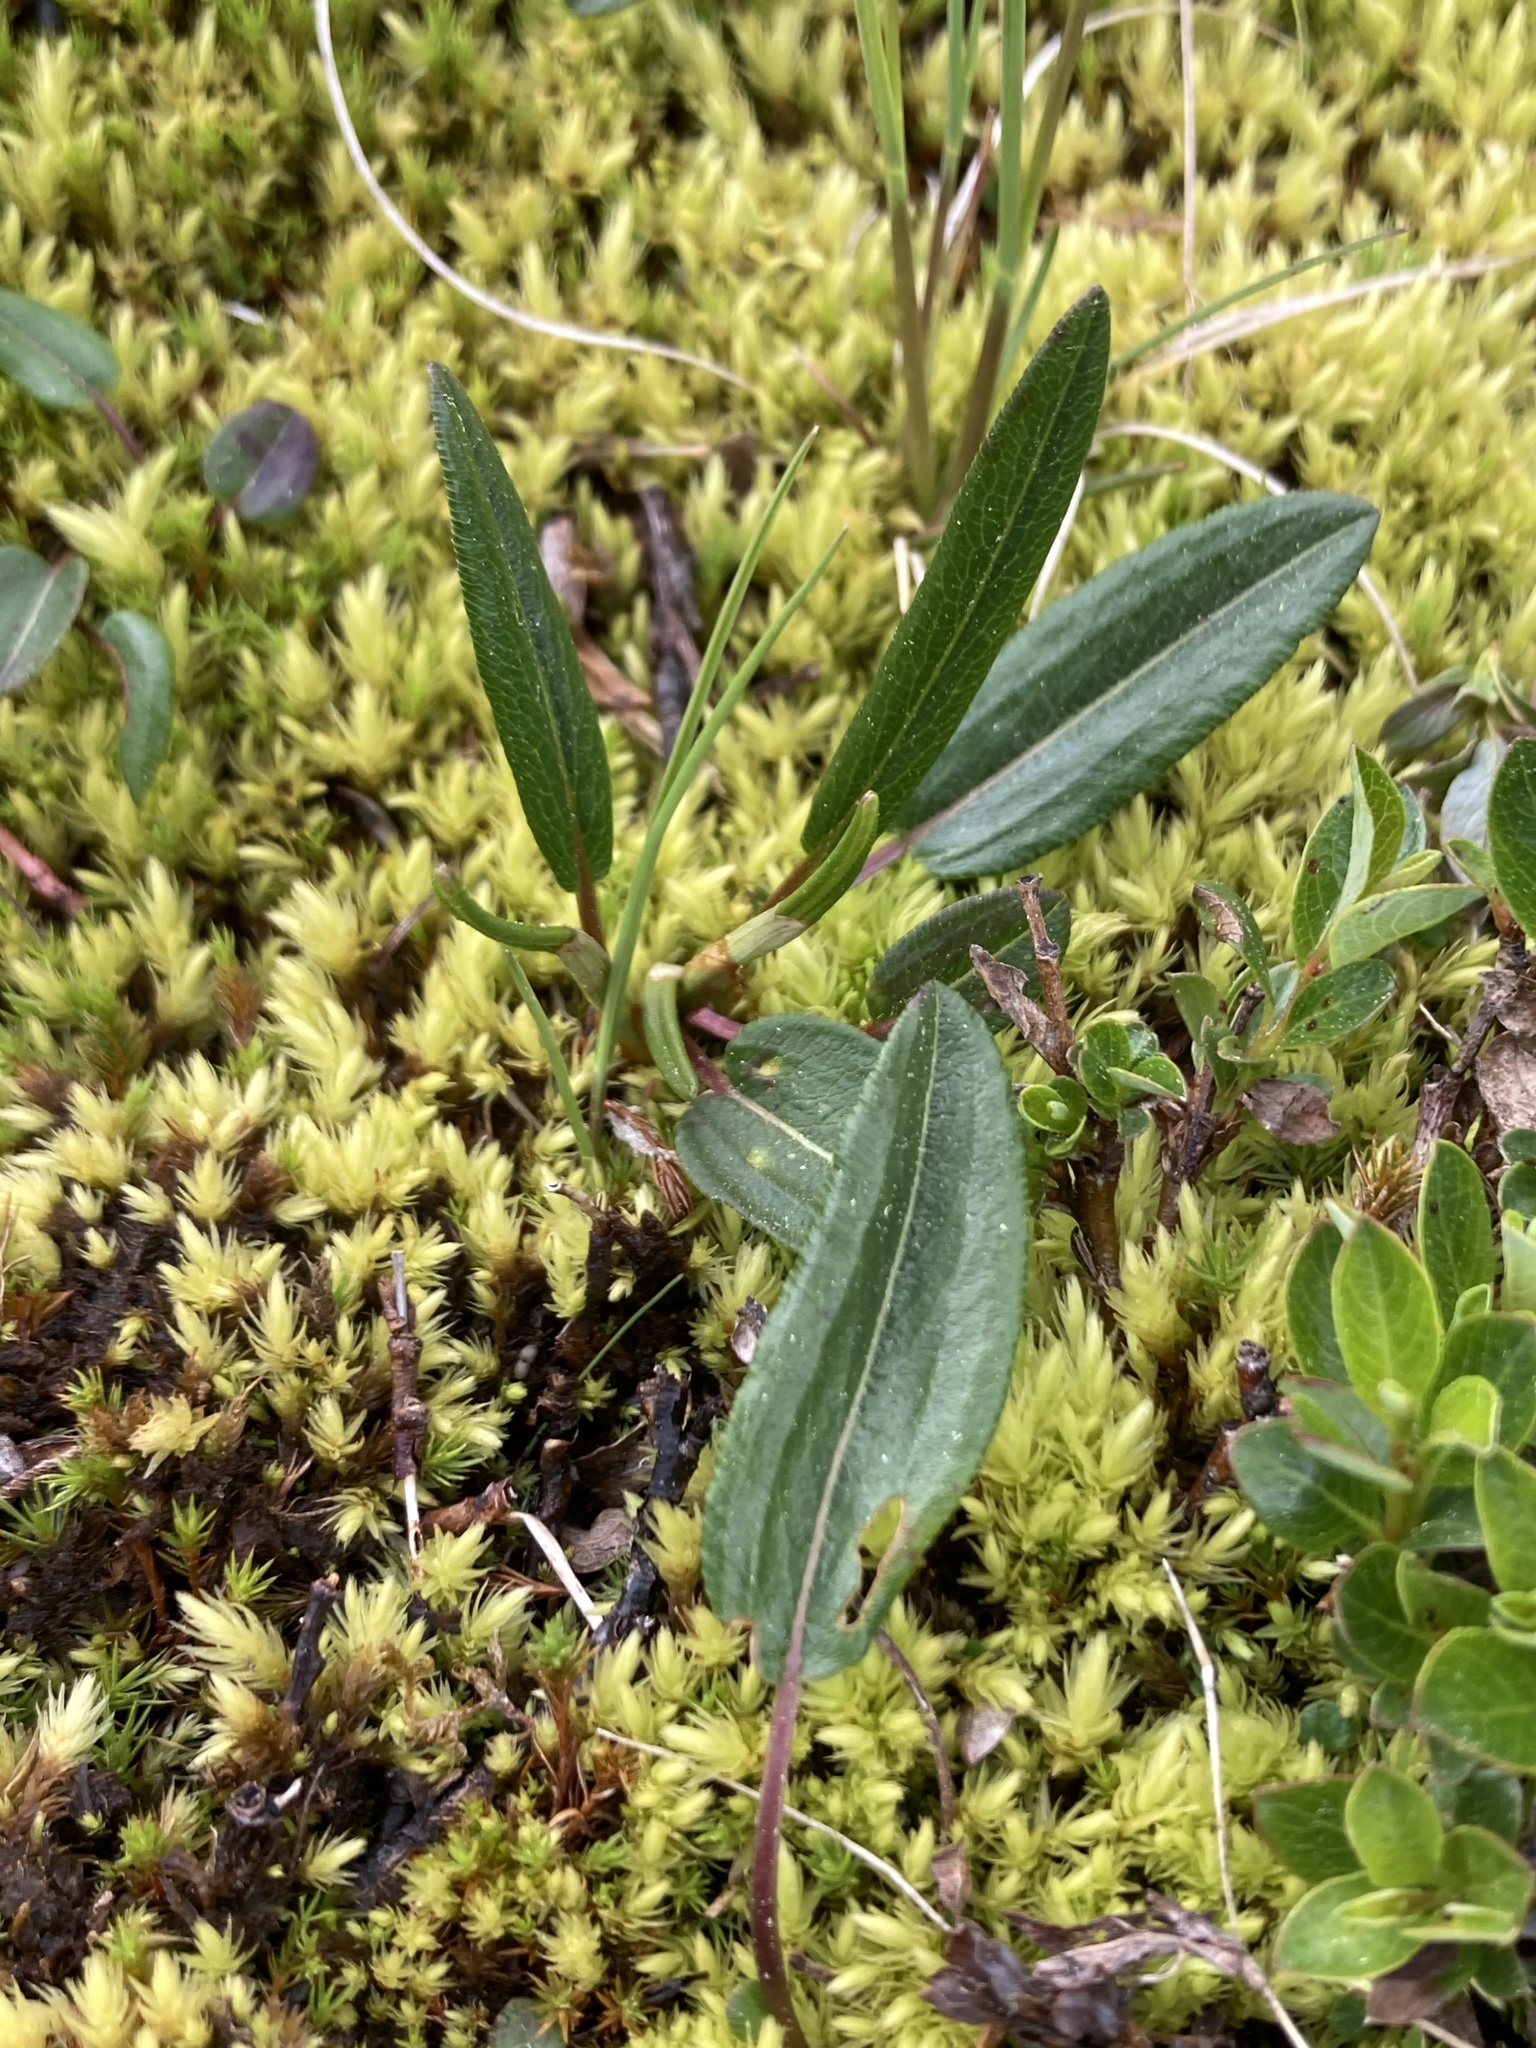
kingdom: Plantae
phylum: Tracheophyta
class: Magnoliopsida
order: Caryophyllales
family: Polygonaceae
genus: Bistorta
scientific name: Bistorta vivipara
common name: Alpine bistort
